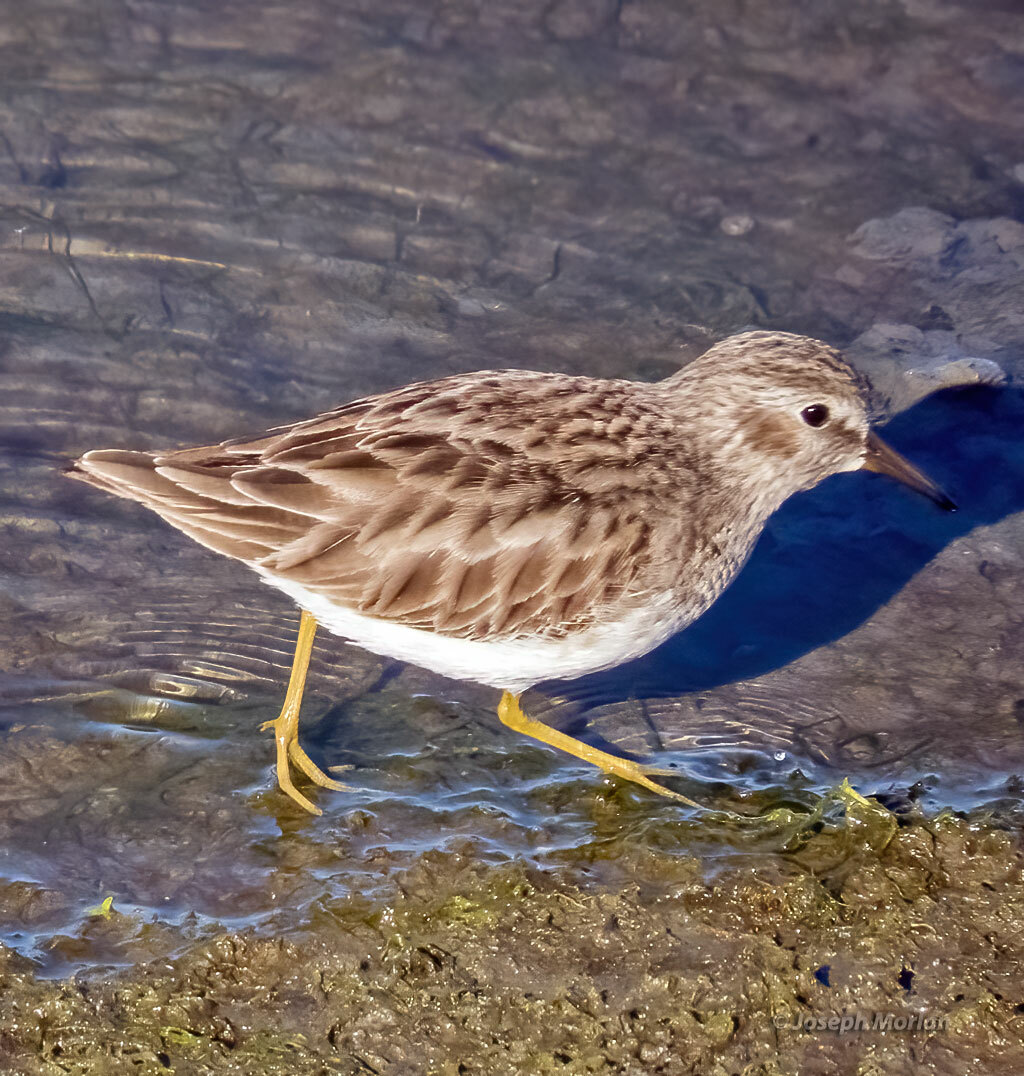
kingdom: Animalia
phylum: Chordata
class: Aves
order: Charadriiformes
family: Scolopacidae
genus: Calidris
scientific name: Calidris minutilla
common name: Least sandpiper
